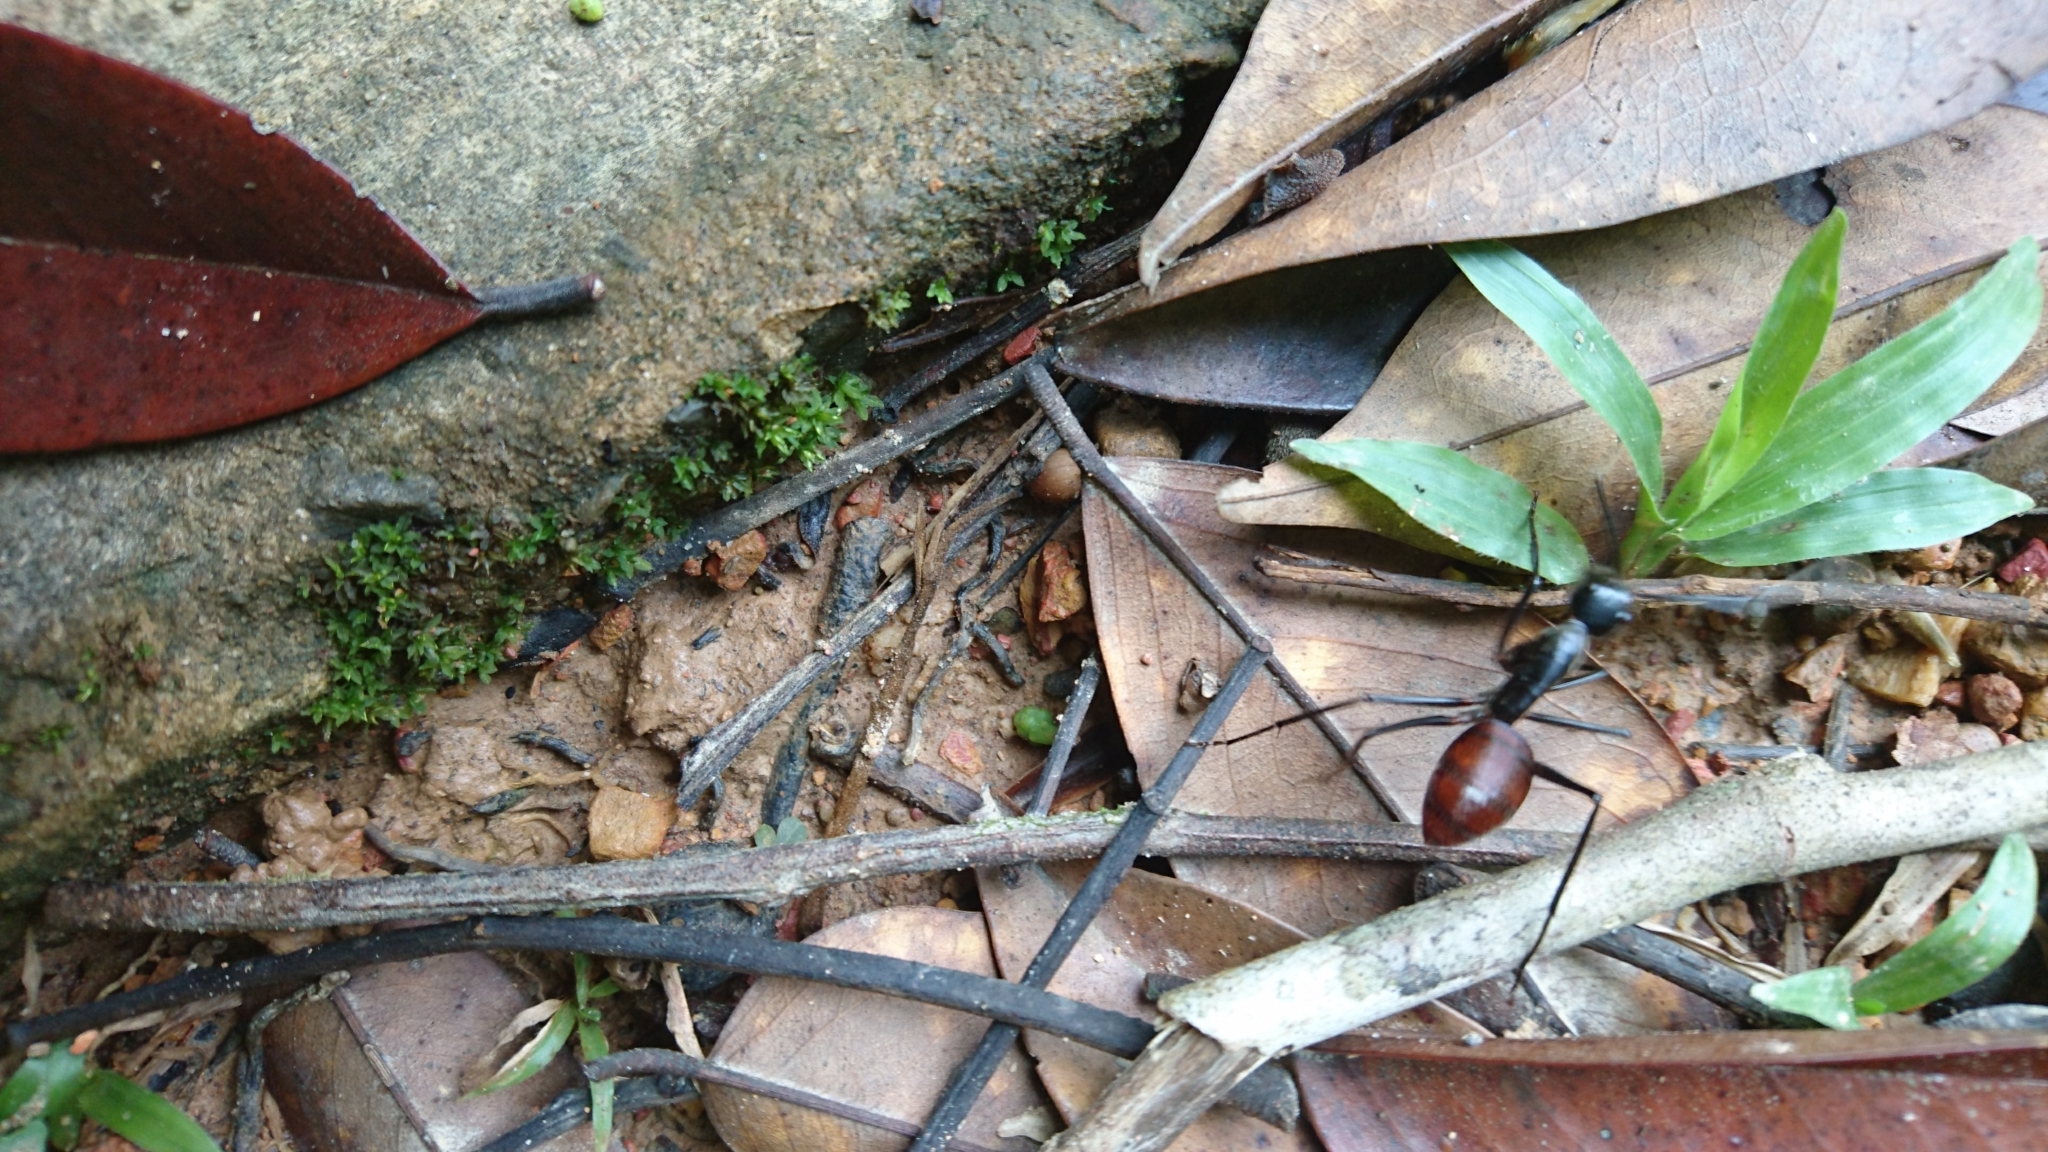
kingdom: Animalia
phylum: Arthropoda
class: Insecta
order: Hymenoptera
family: Formicidae
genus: Dinomyrmex
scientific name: Dinomyrmex
